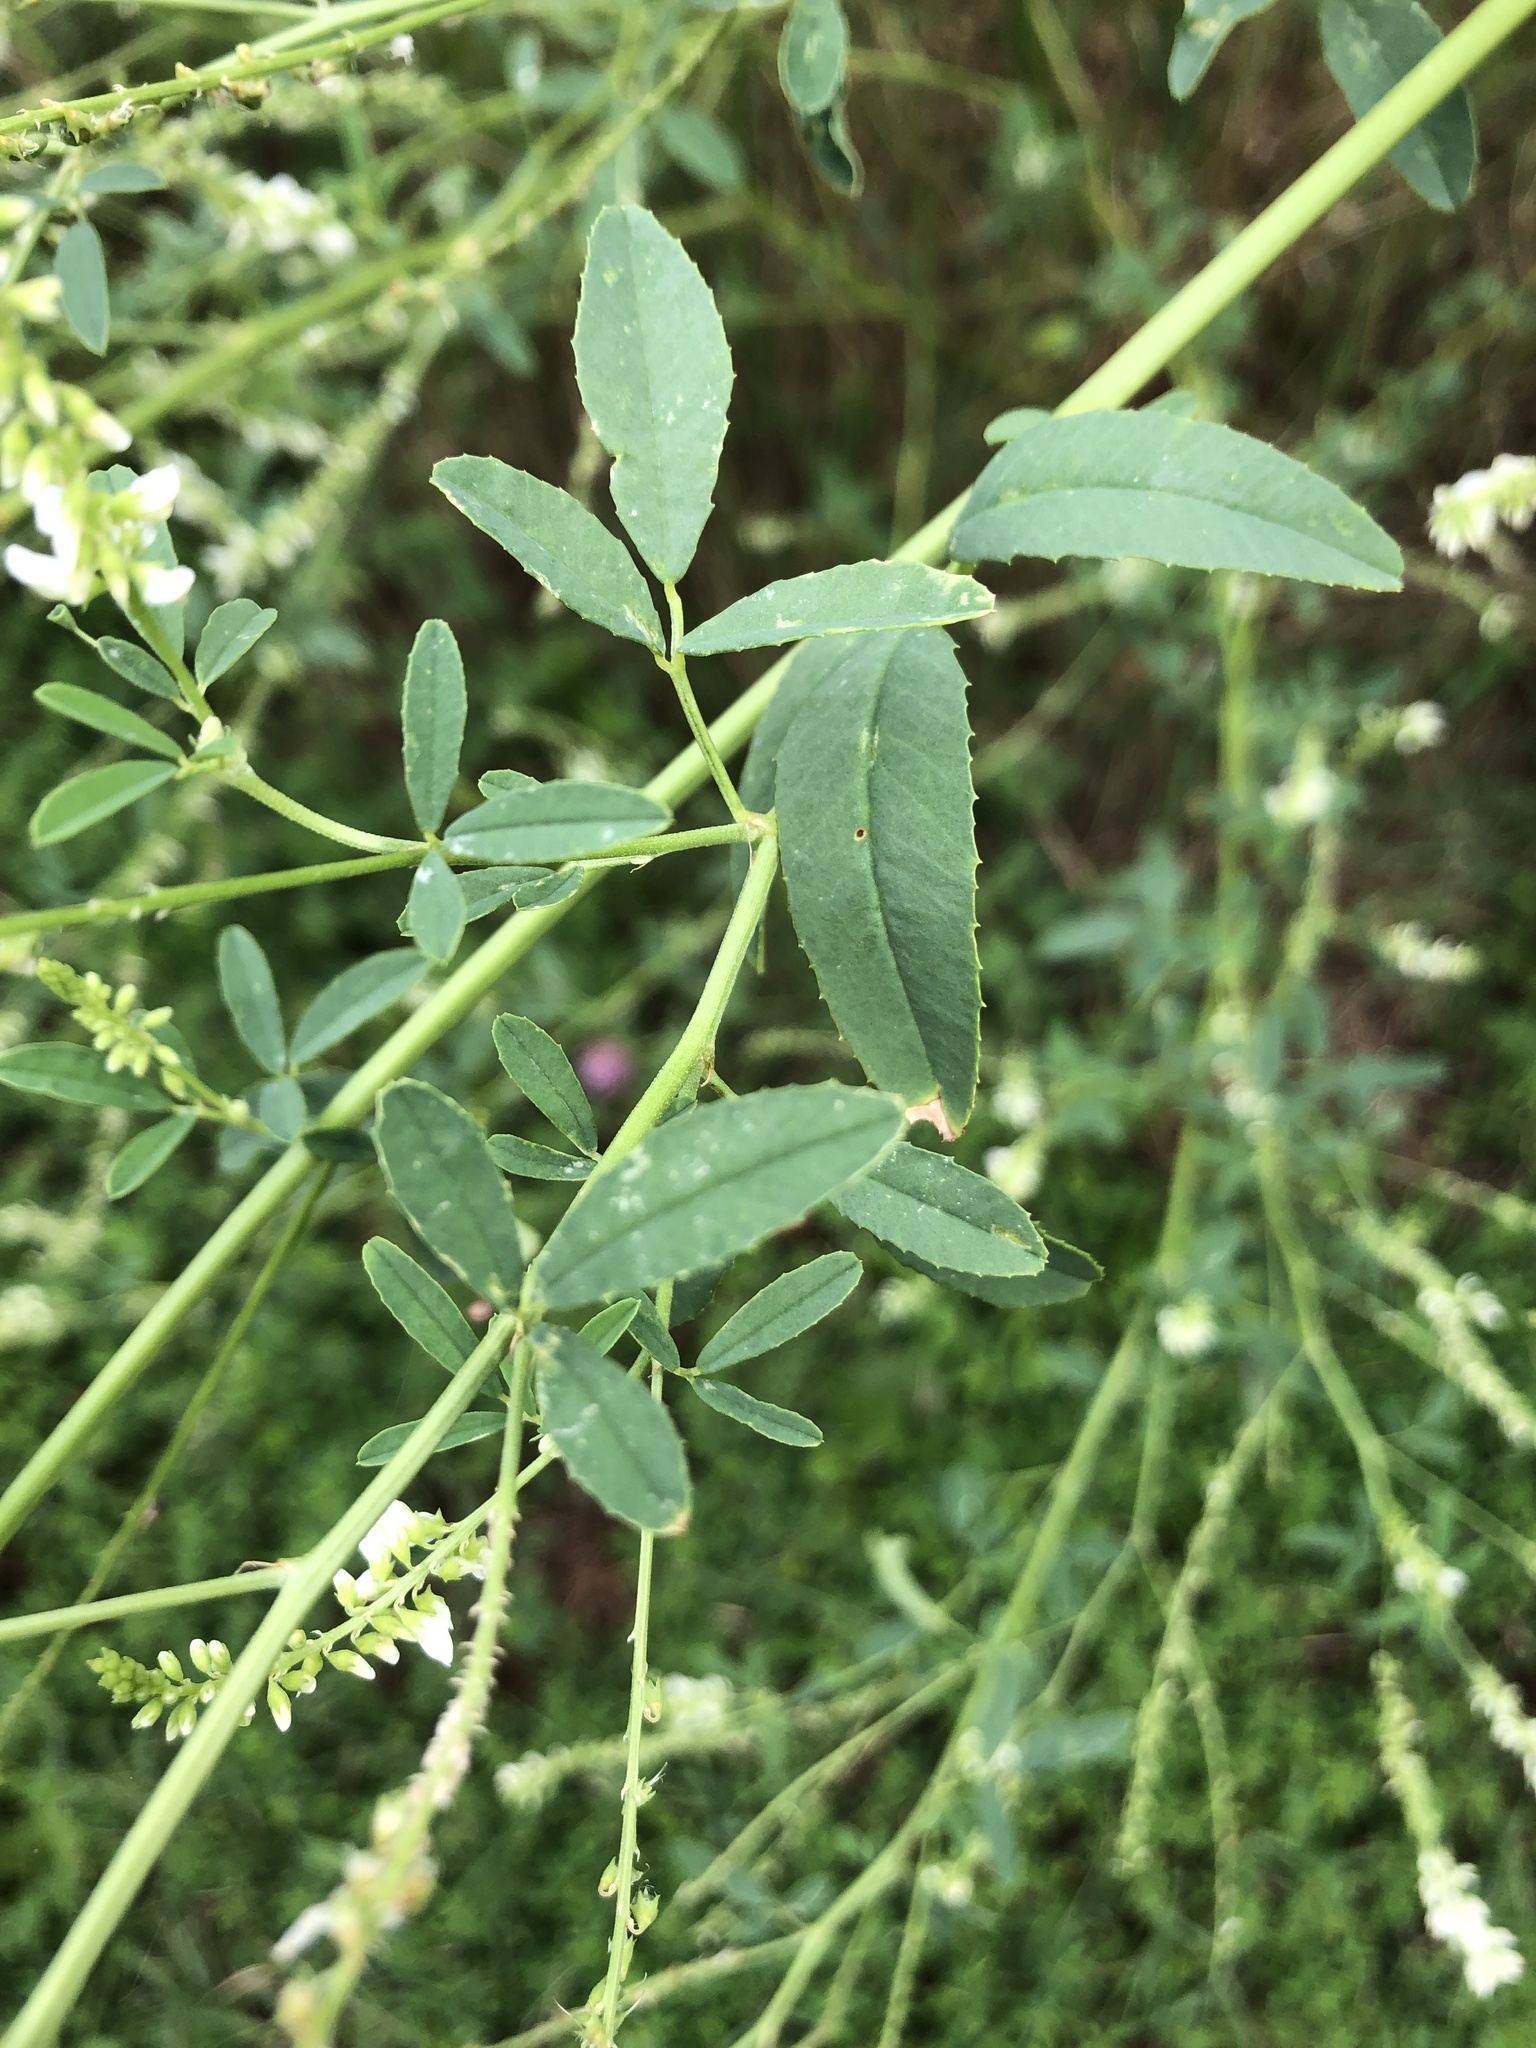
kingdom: Plantae
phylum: Tracheophyta
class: Magnoliopsida
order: Fabales
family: Fabaceae
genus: Melilotus
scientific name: Melilotus albus
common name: White melilot
